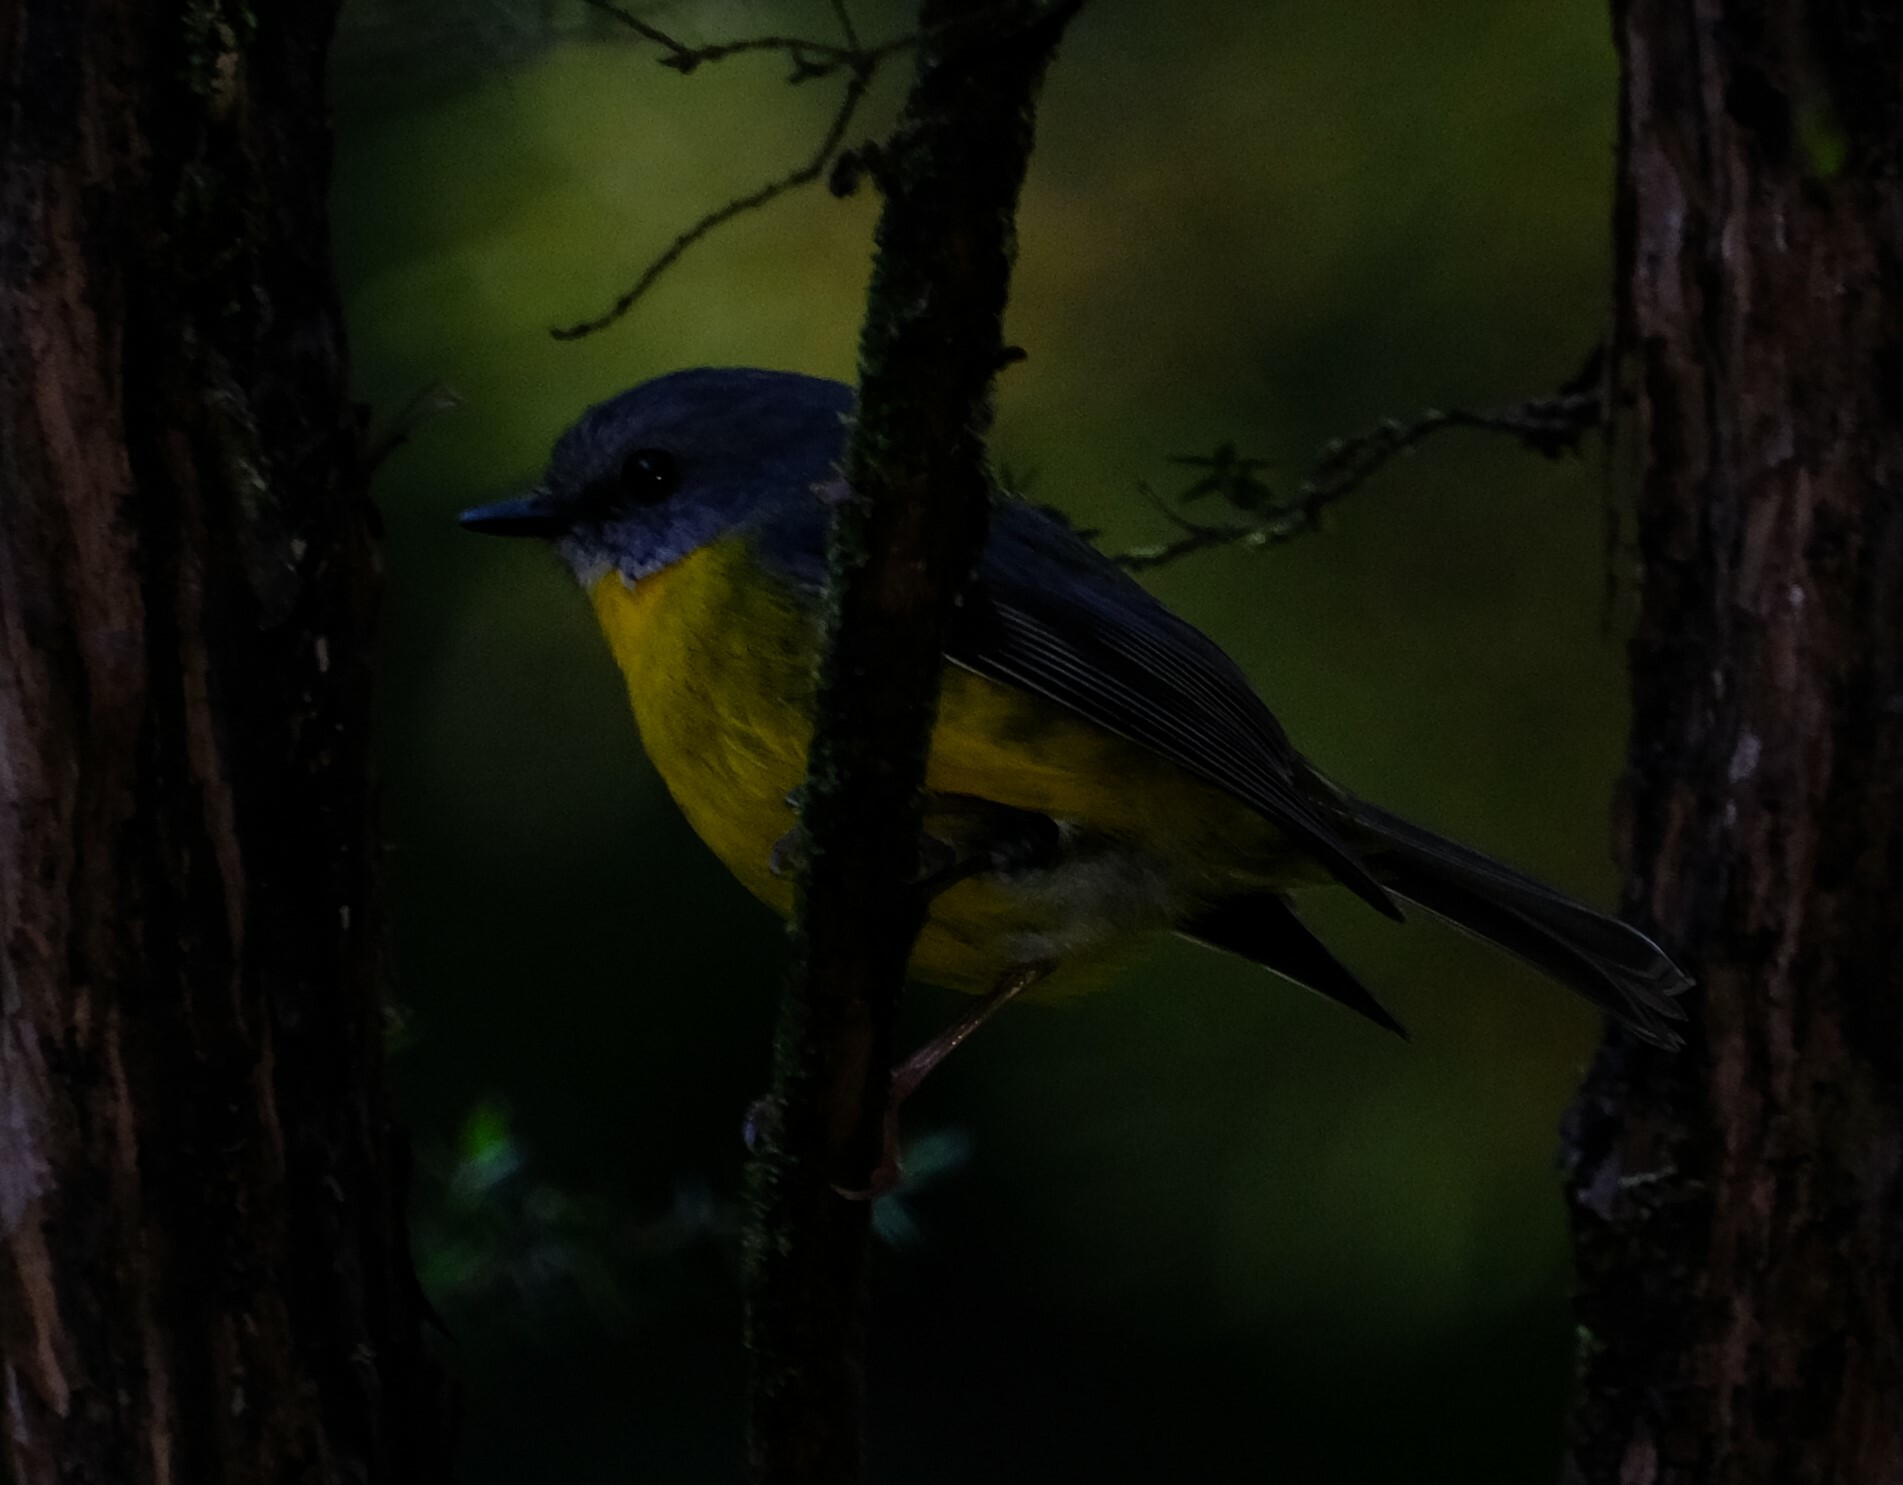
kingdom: Animalia
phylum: Chordata
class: Aves
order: Passeriformes
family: Petroicidae
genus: Eopsaltria
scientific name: Eopsaltria australis
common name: Eastern yellow robin
